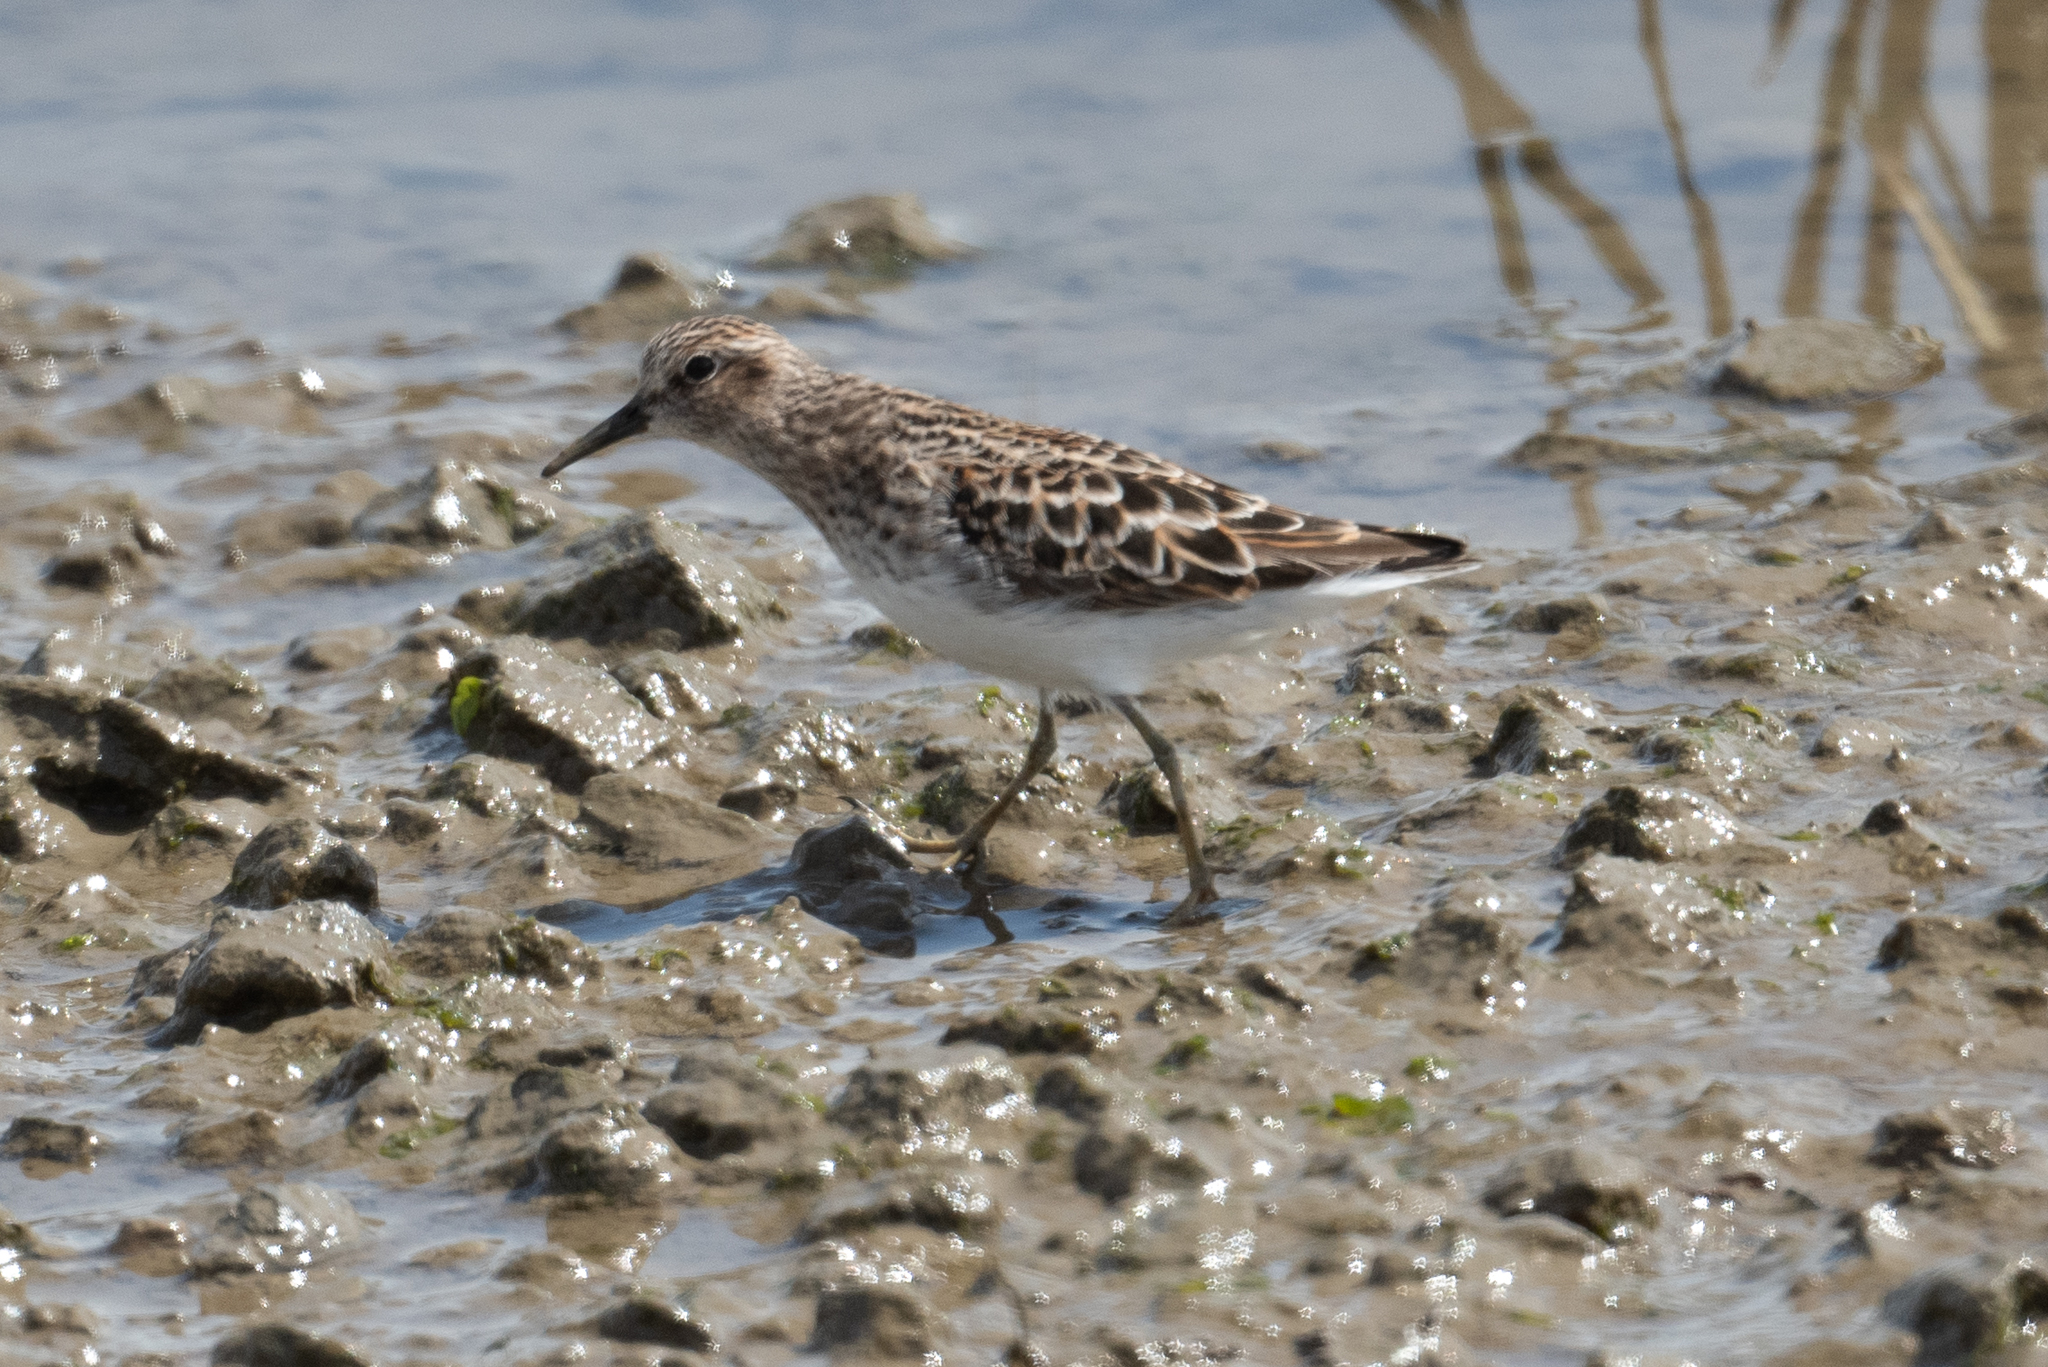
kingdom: Animalia
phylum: Chordata
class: Aves
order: Charadriiformes
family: Scolopacidae
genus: Calidris
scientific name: Calidris minutilla
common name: Least sandpiper
